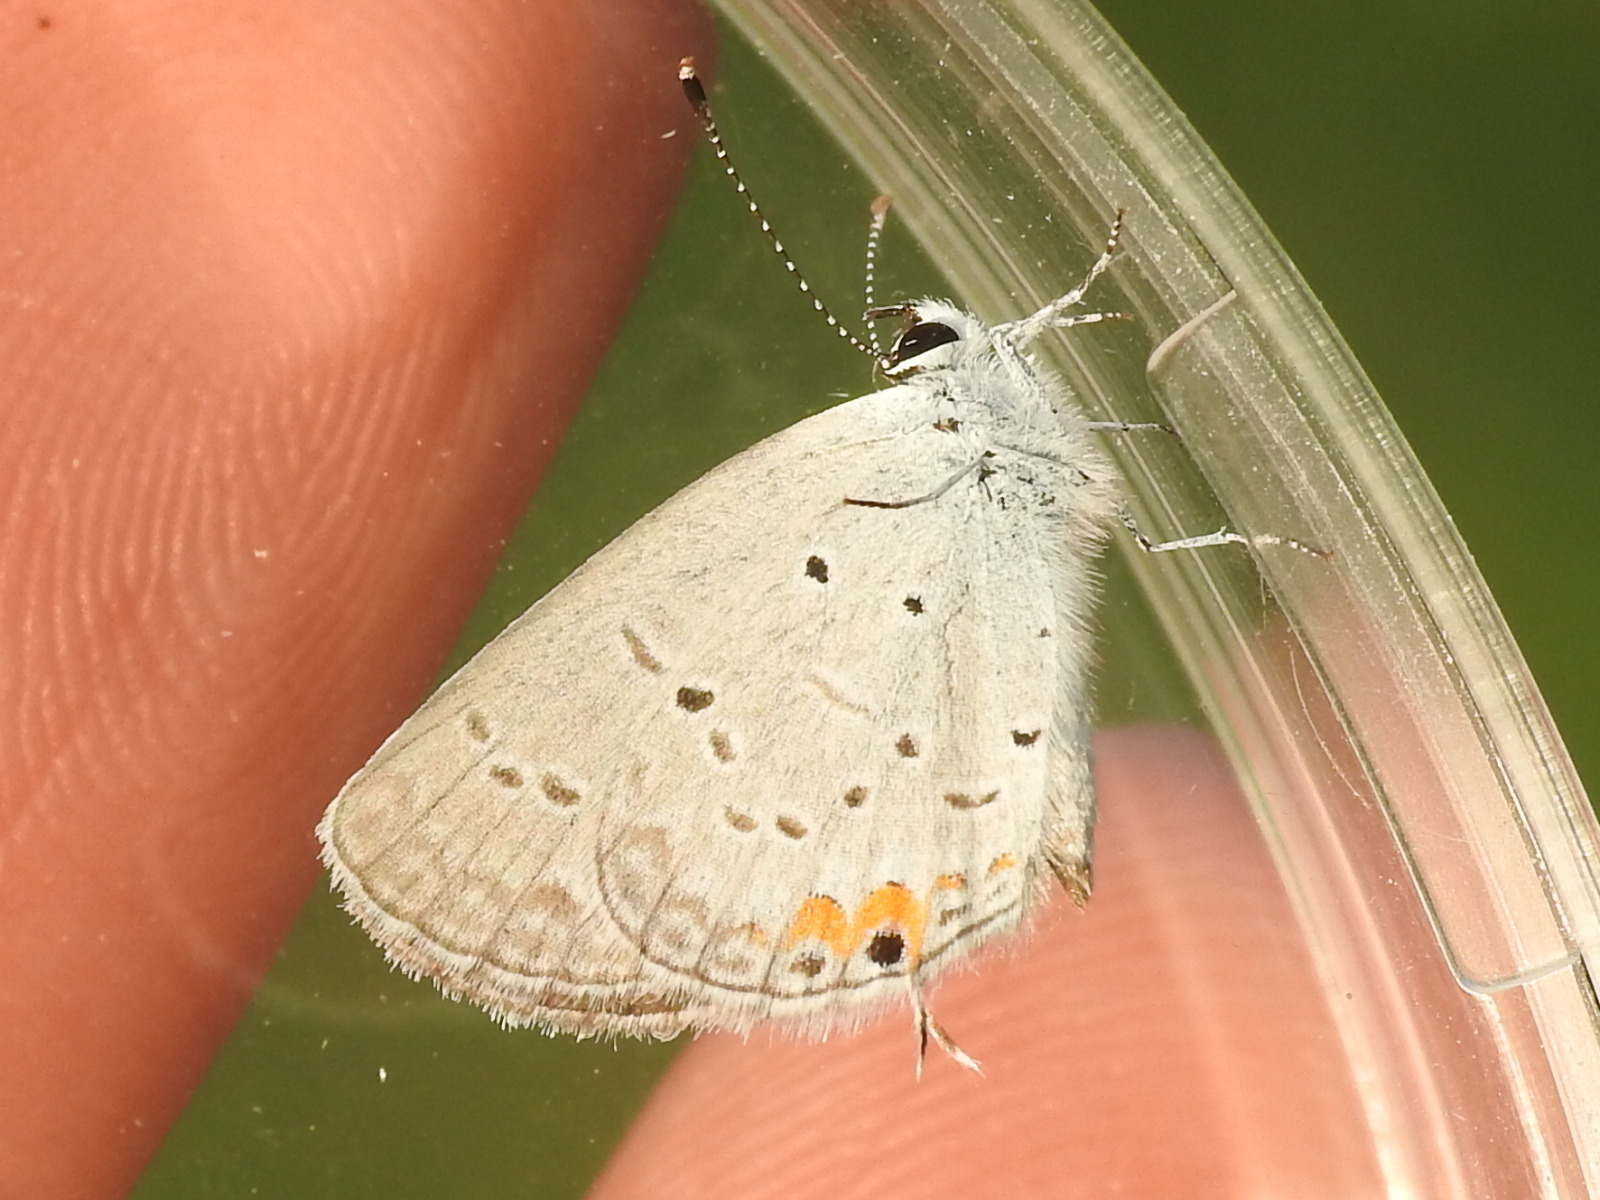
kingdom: Animalia
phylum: Arthropoda
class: Insecta
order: Lepidoptera
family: Lycaenidae
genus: Elkalyce
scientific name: Elkalyce comyntas
